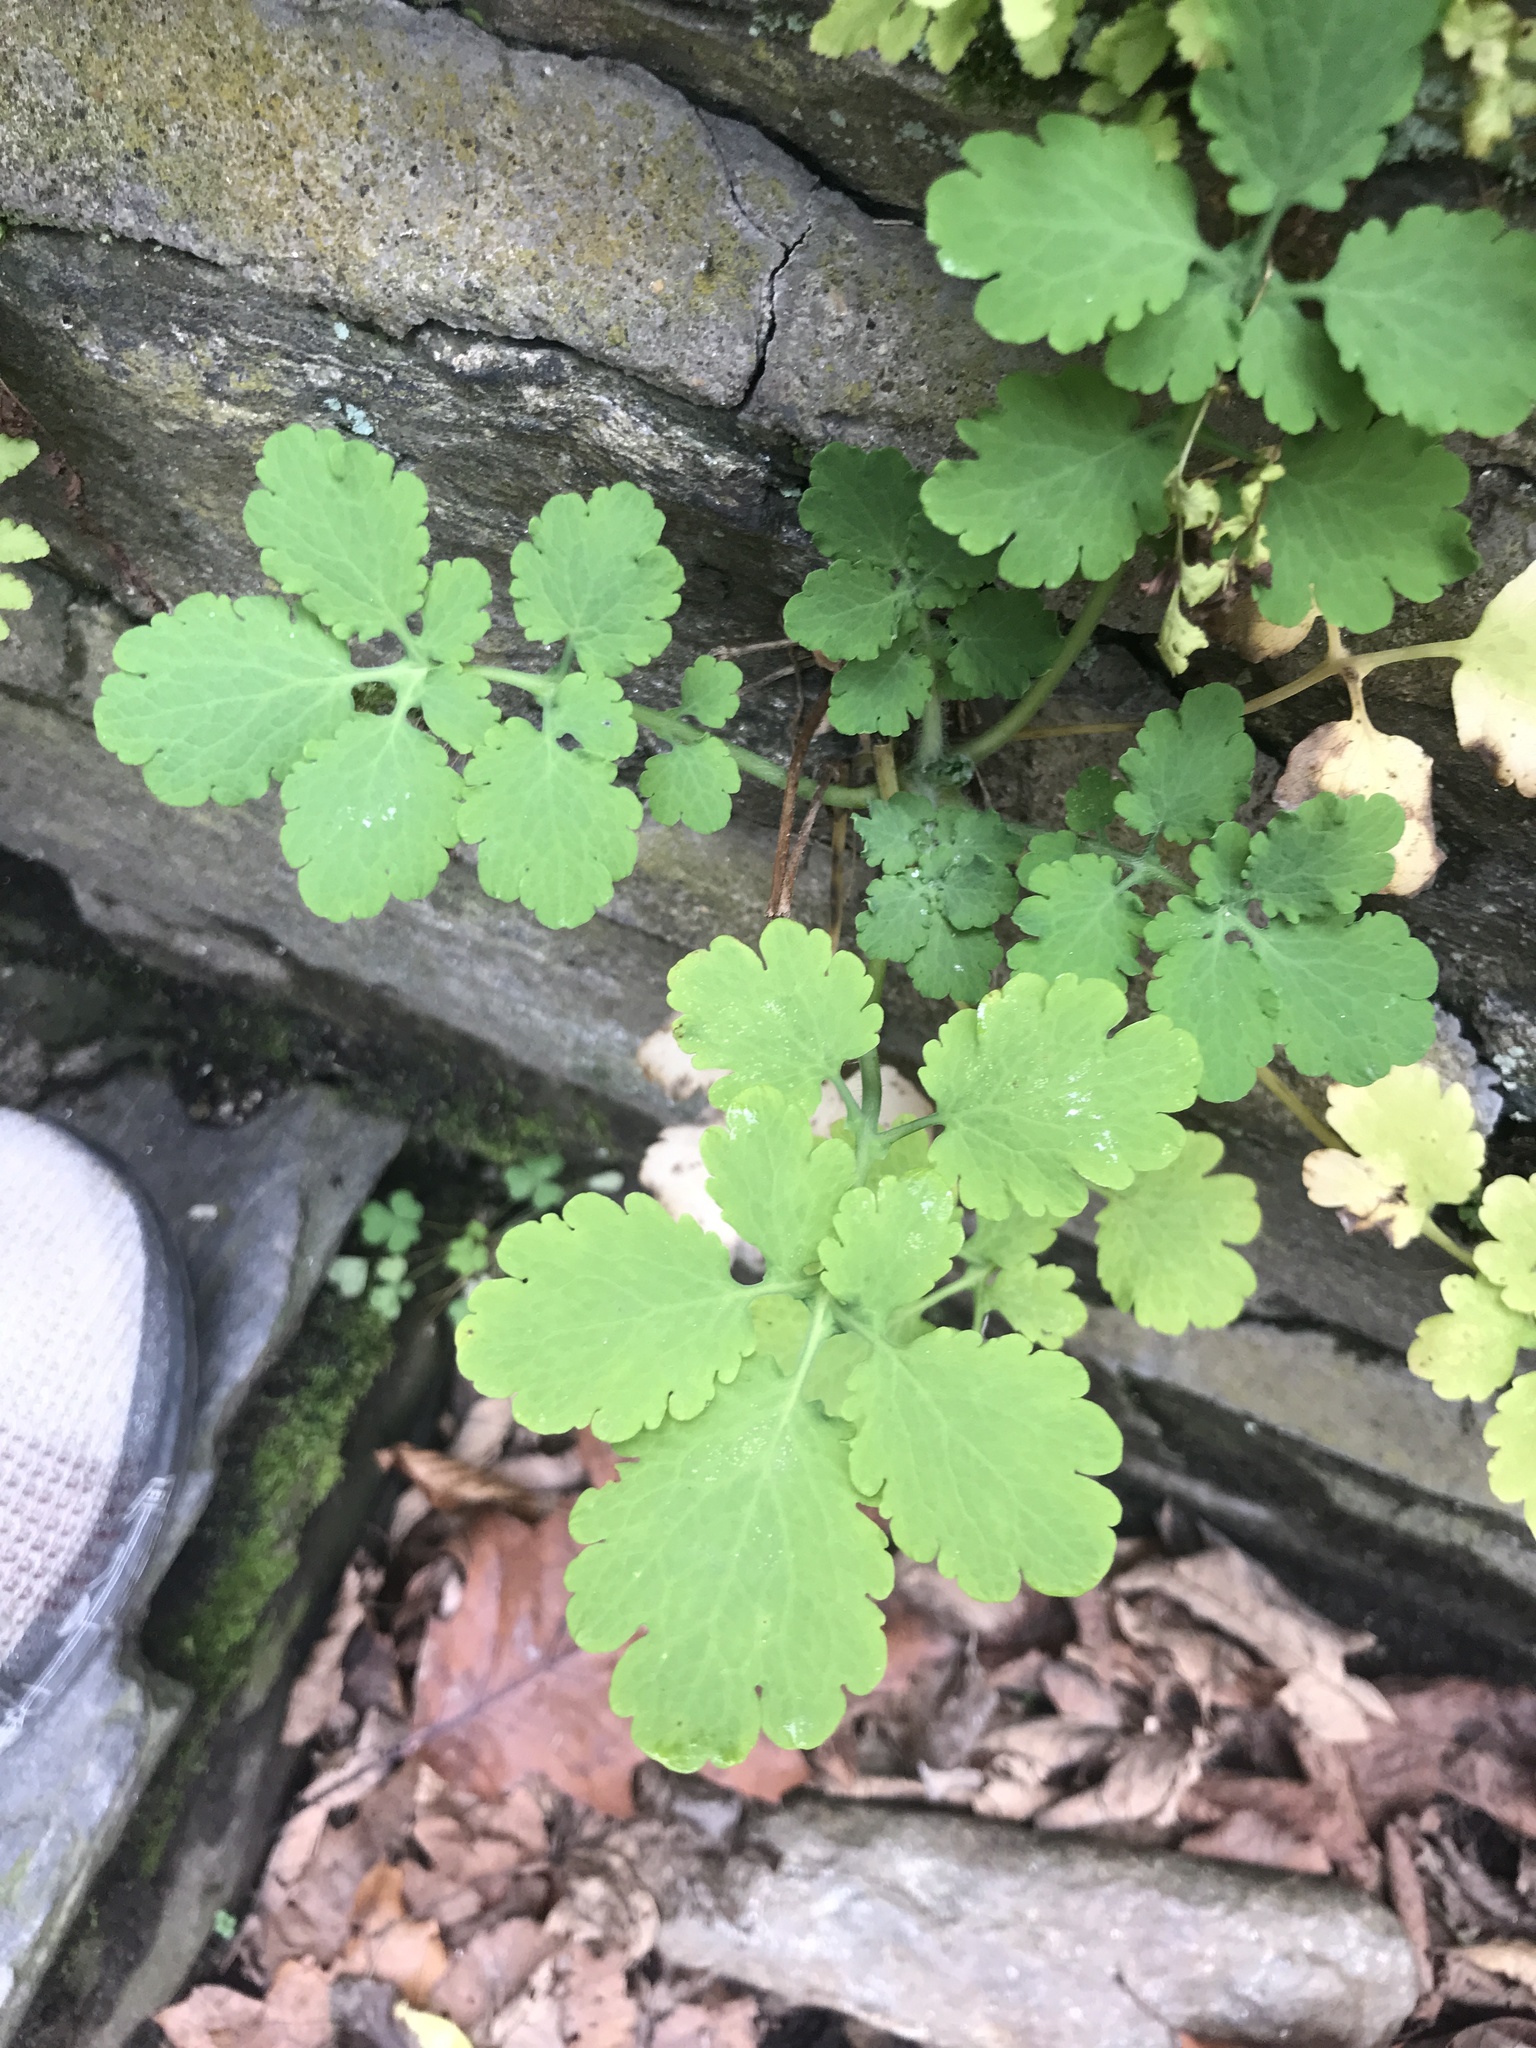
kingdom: Plantae
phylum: Tracheophyta
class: Magnoliopsida
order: Ranunculales
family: Papaveraceae
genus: Chelidonium
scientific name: Chelidonium majus
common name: Greater celandine
